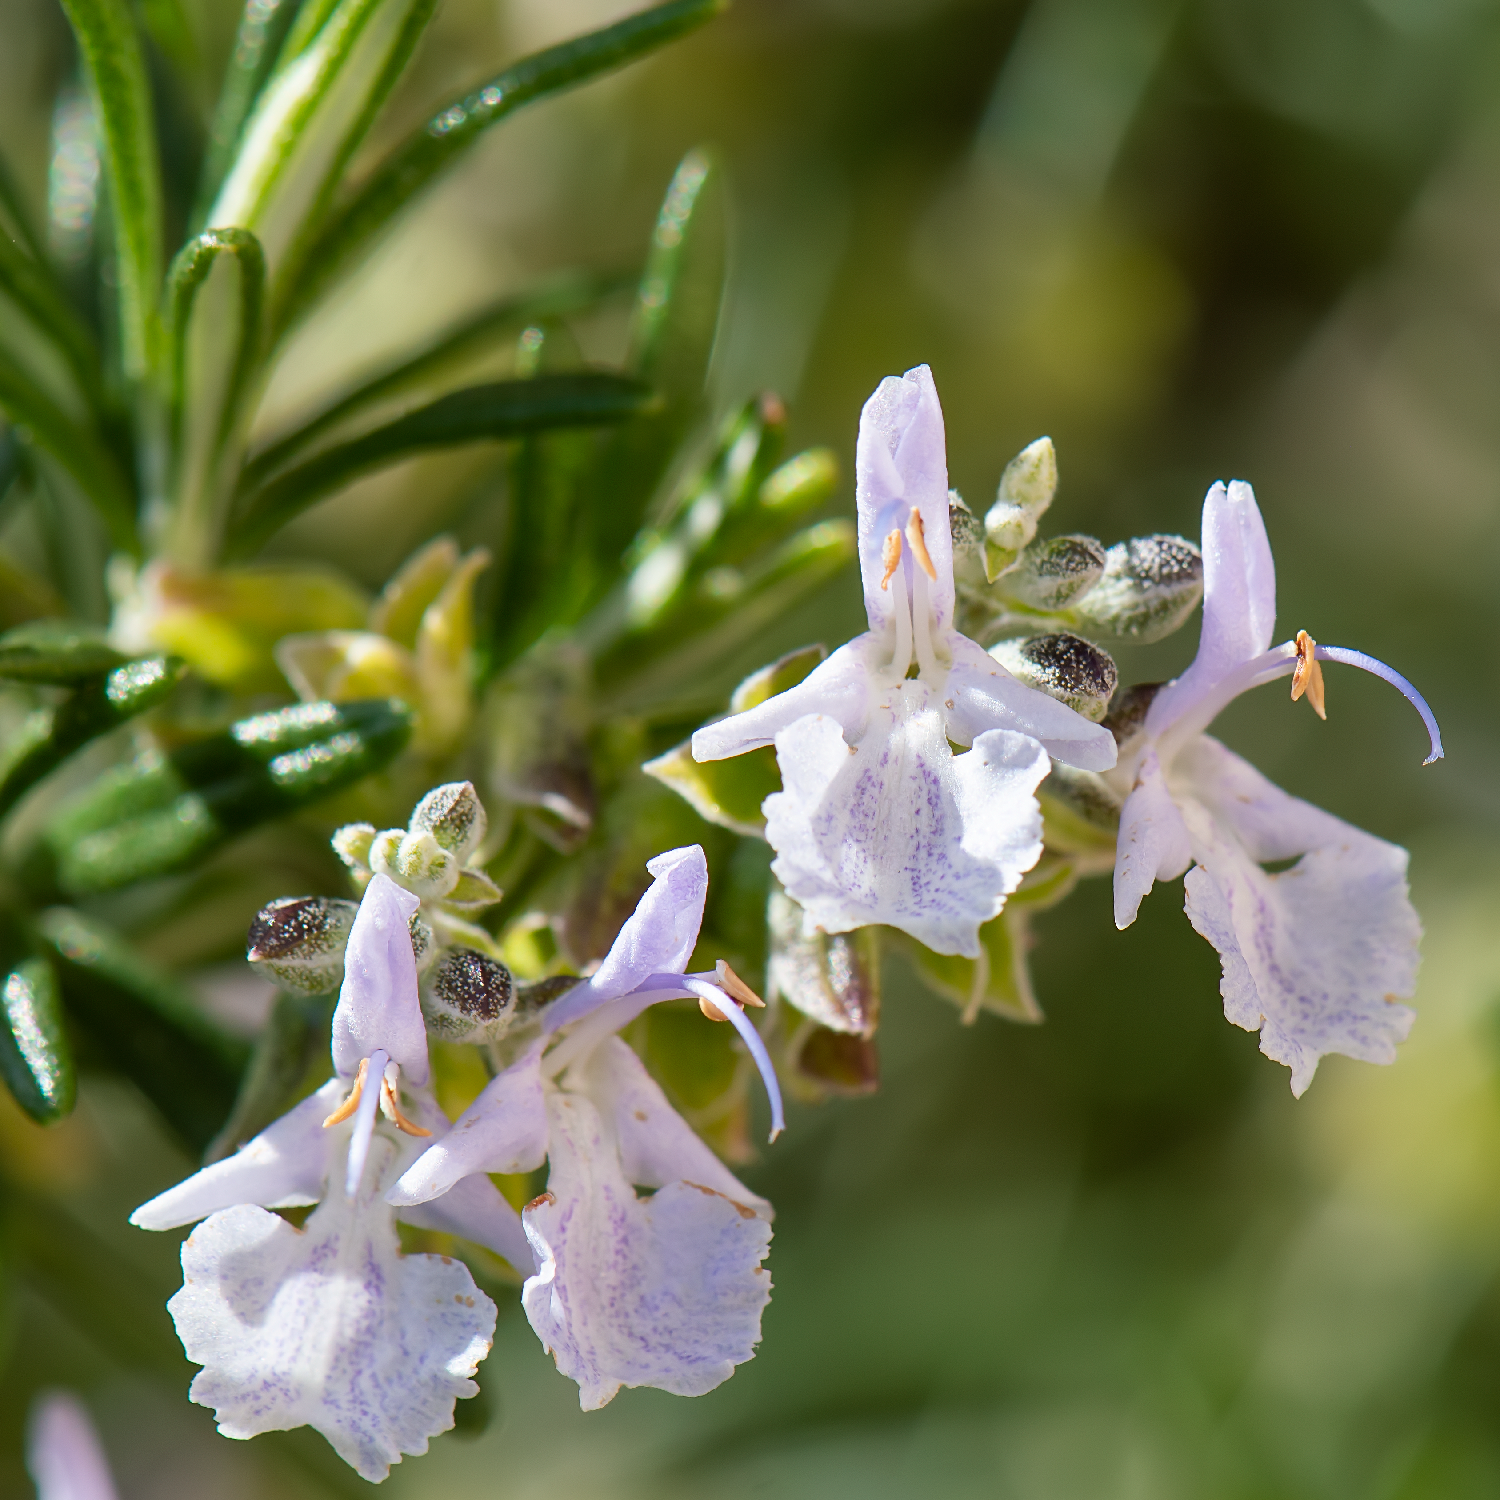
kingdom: Plantae
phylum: Tracheophyta
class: Magnoliopsida
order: Lamiales
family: Lamiaceae
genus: Salvia
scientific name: Salvia rosmarinus
